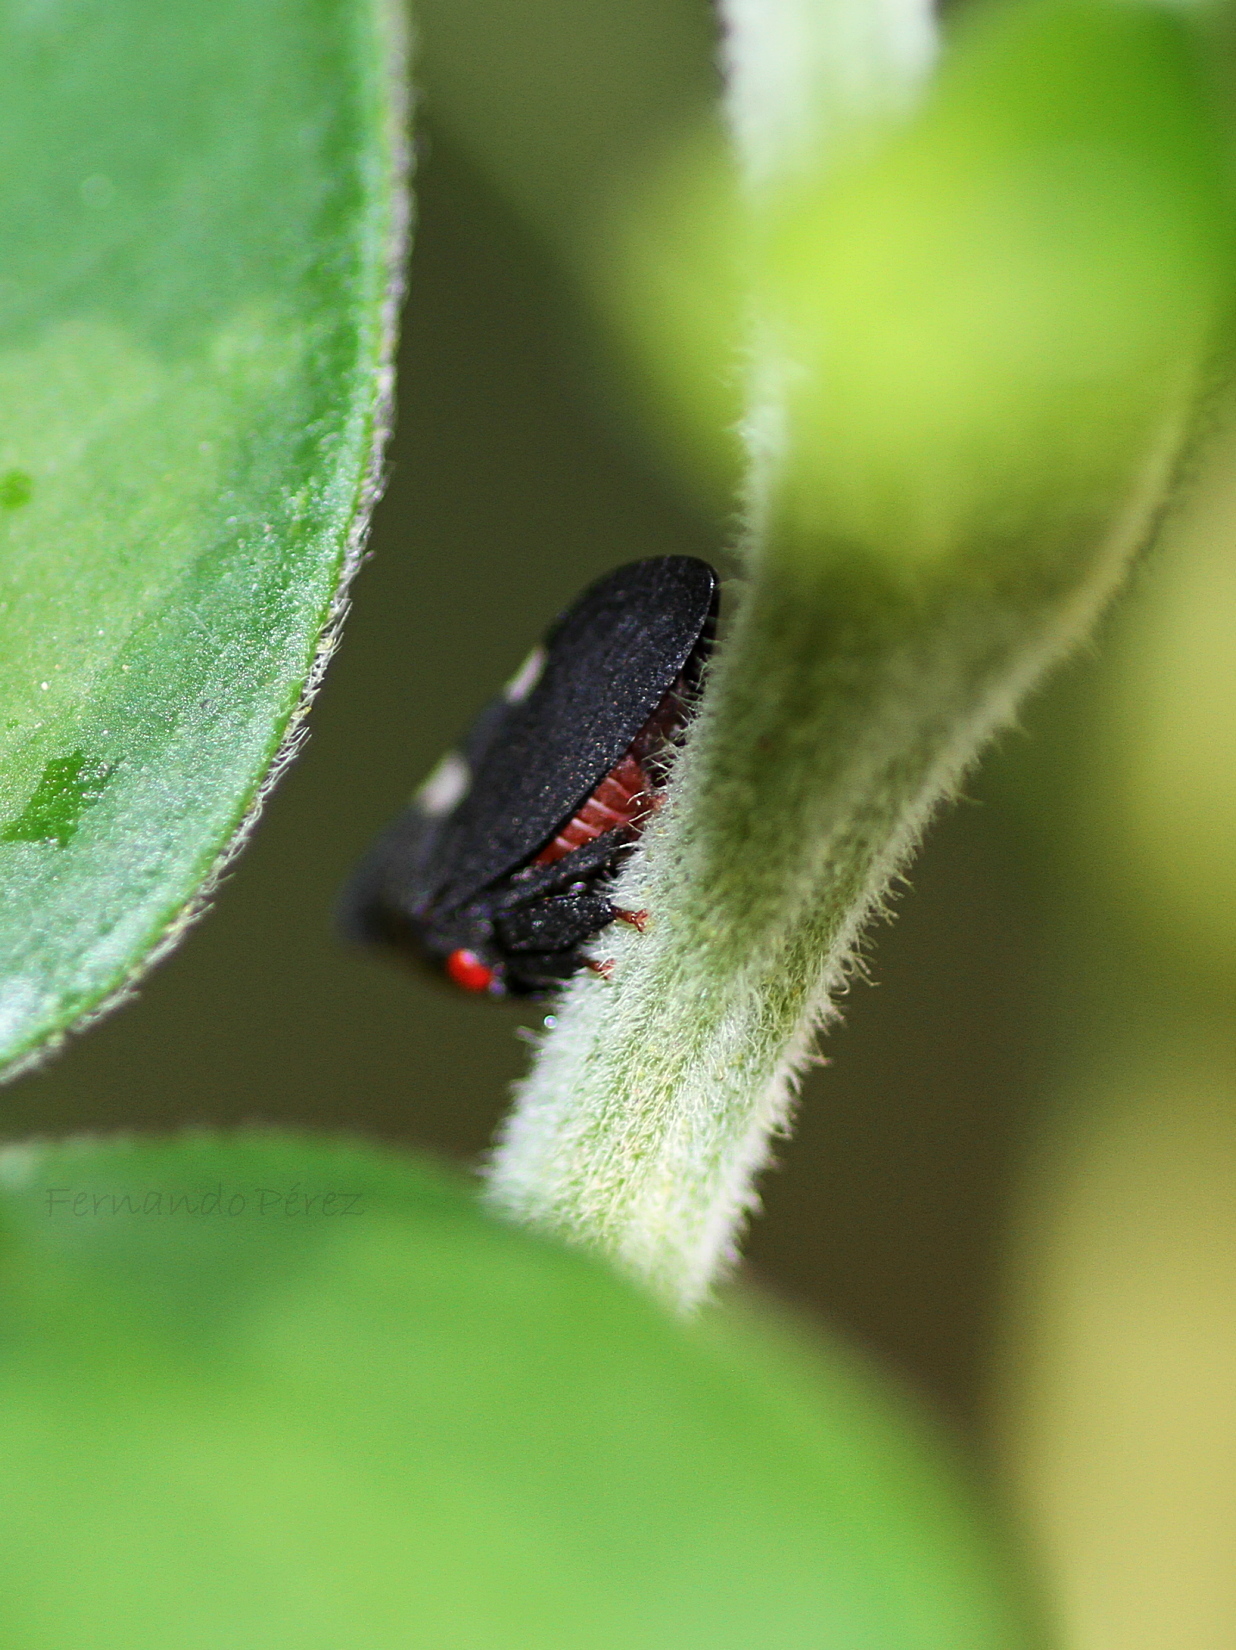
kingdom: Animalia
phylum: Arthropoda
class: Insecta
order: Hemiptera
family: Membracidae
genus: Enchenopa
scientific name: Enchenopa quadricolor
